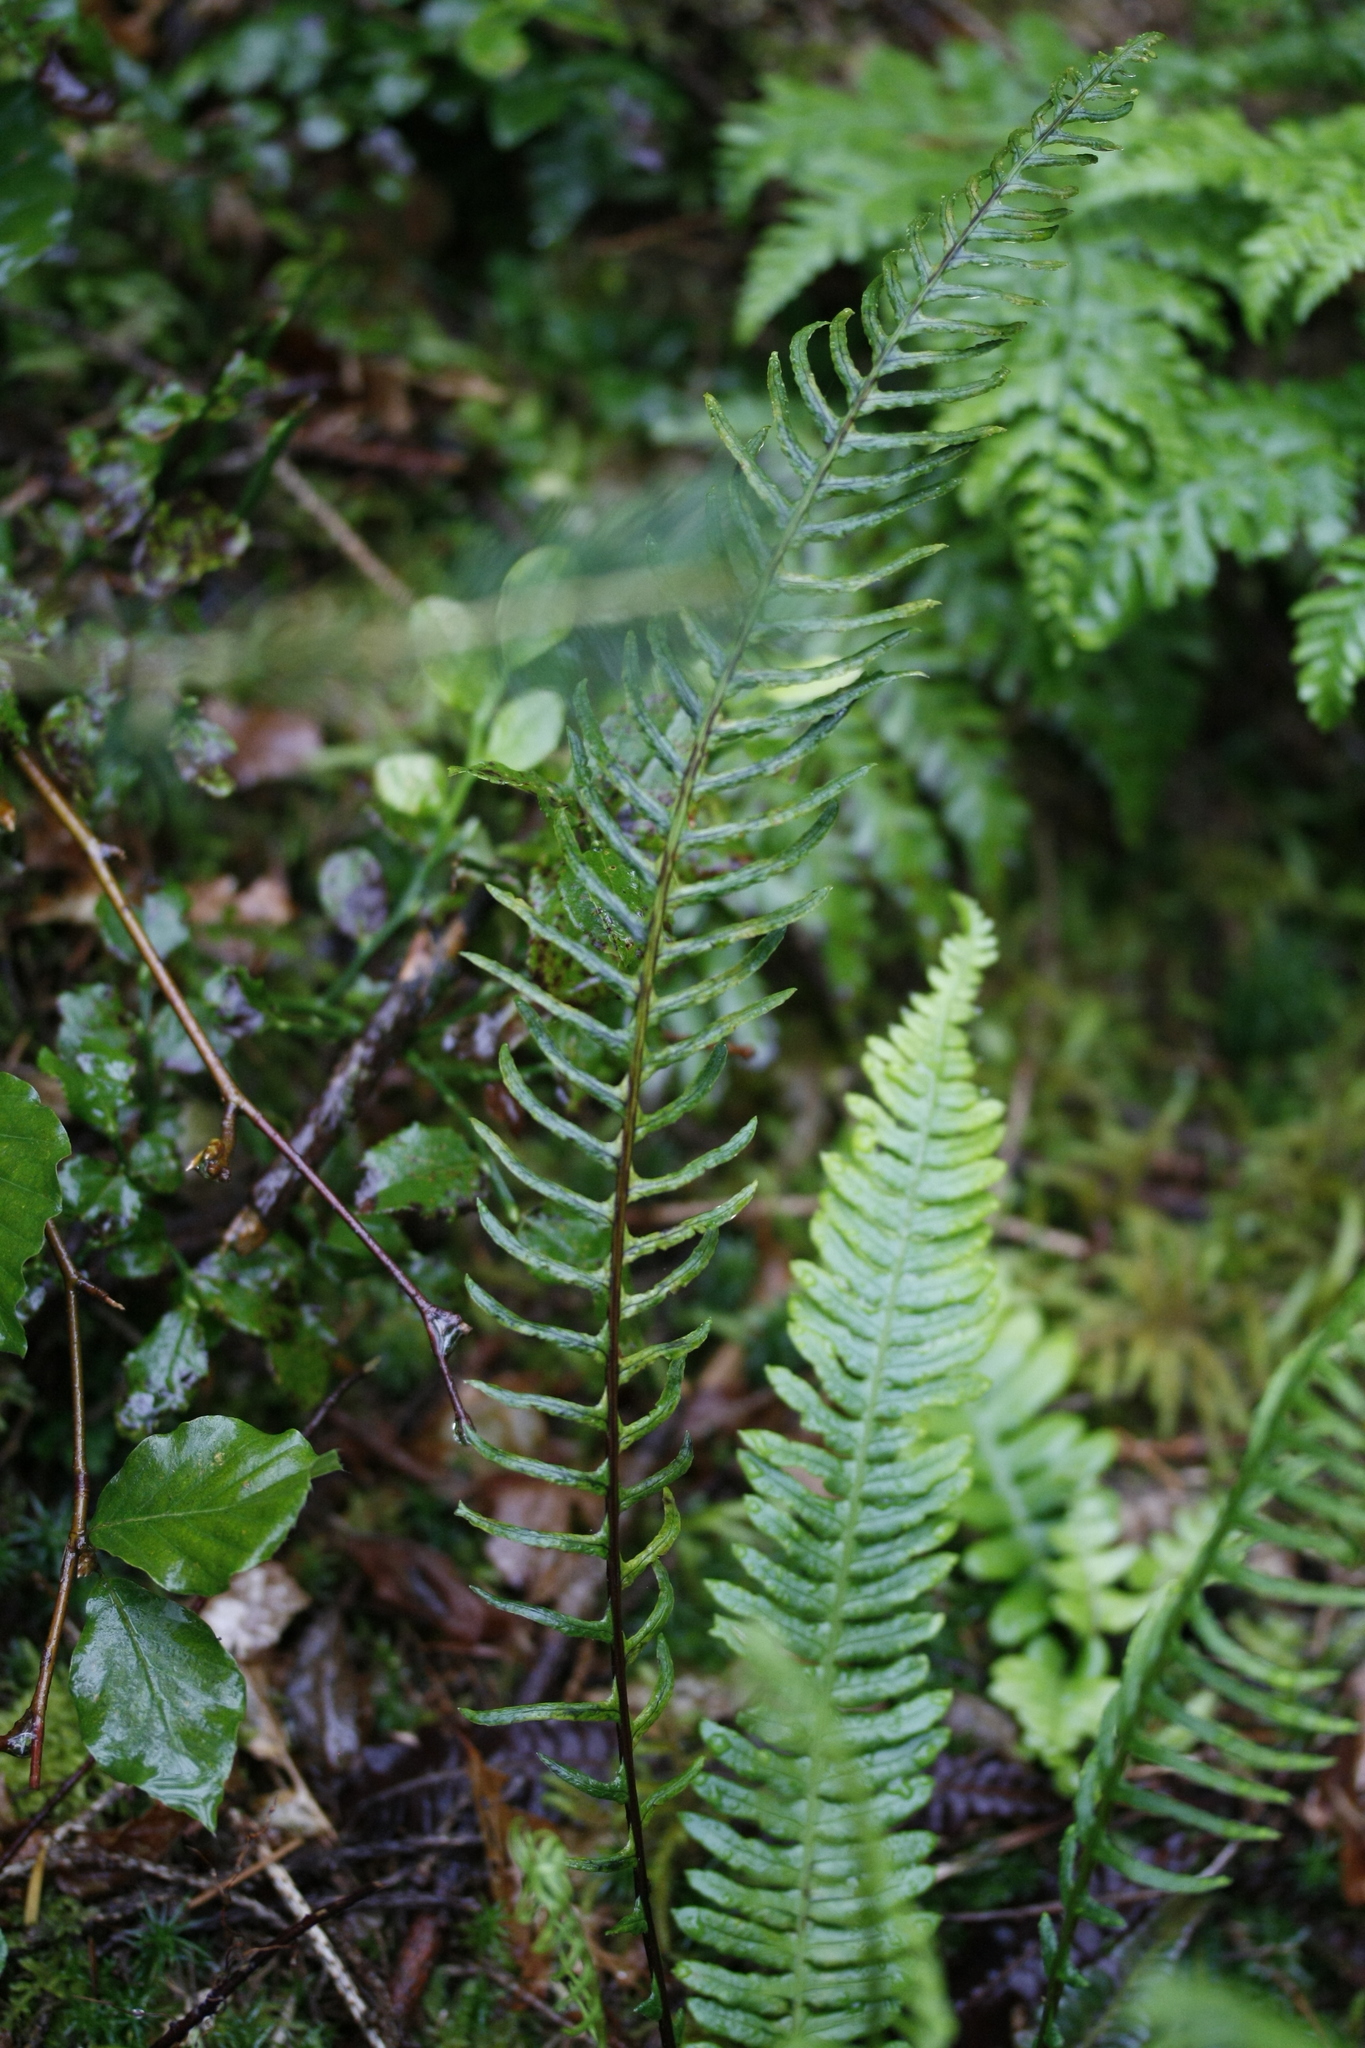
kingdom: Plantae
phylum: Tracheophyta
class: Polypodiopsida
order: Polypodiales
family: Blechnaceae
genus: Struthiopteris
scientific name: Struthiopteris spicant
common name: Deer fern
